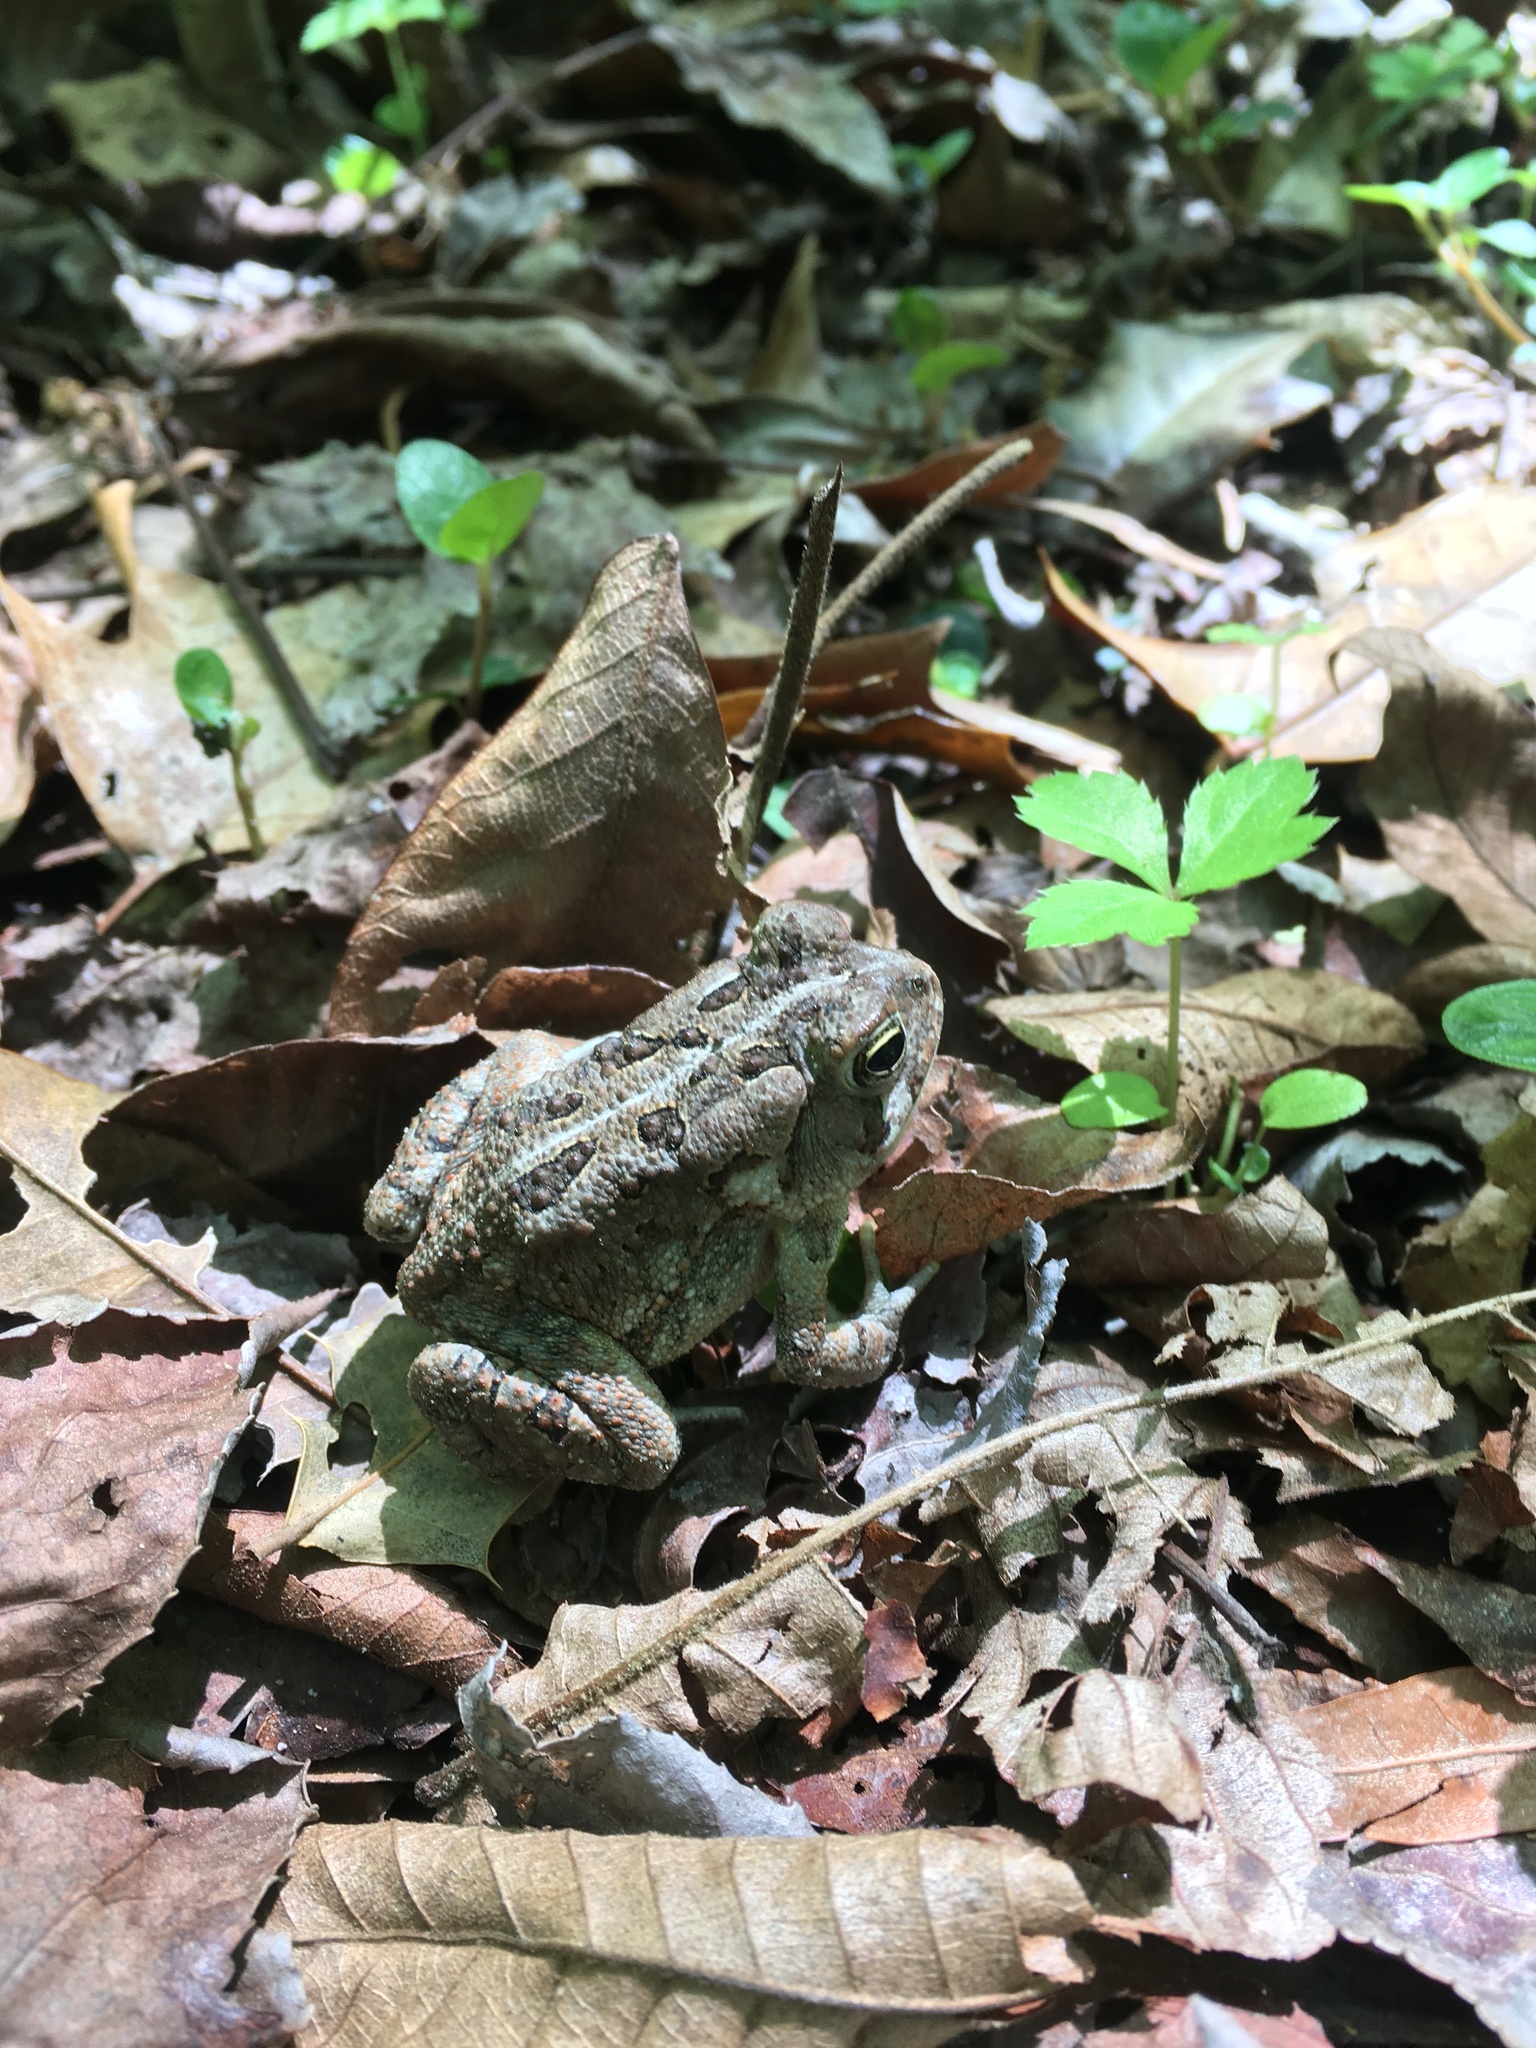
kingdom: Animalia
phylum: Chordata
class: Amphibia
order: Anura
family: Bufonidae
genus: Anaxyrus
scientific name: Anaxyrus fowleri
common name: Fowler's toad
